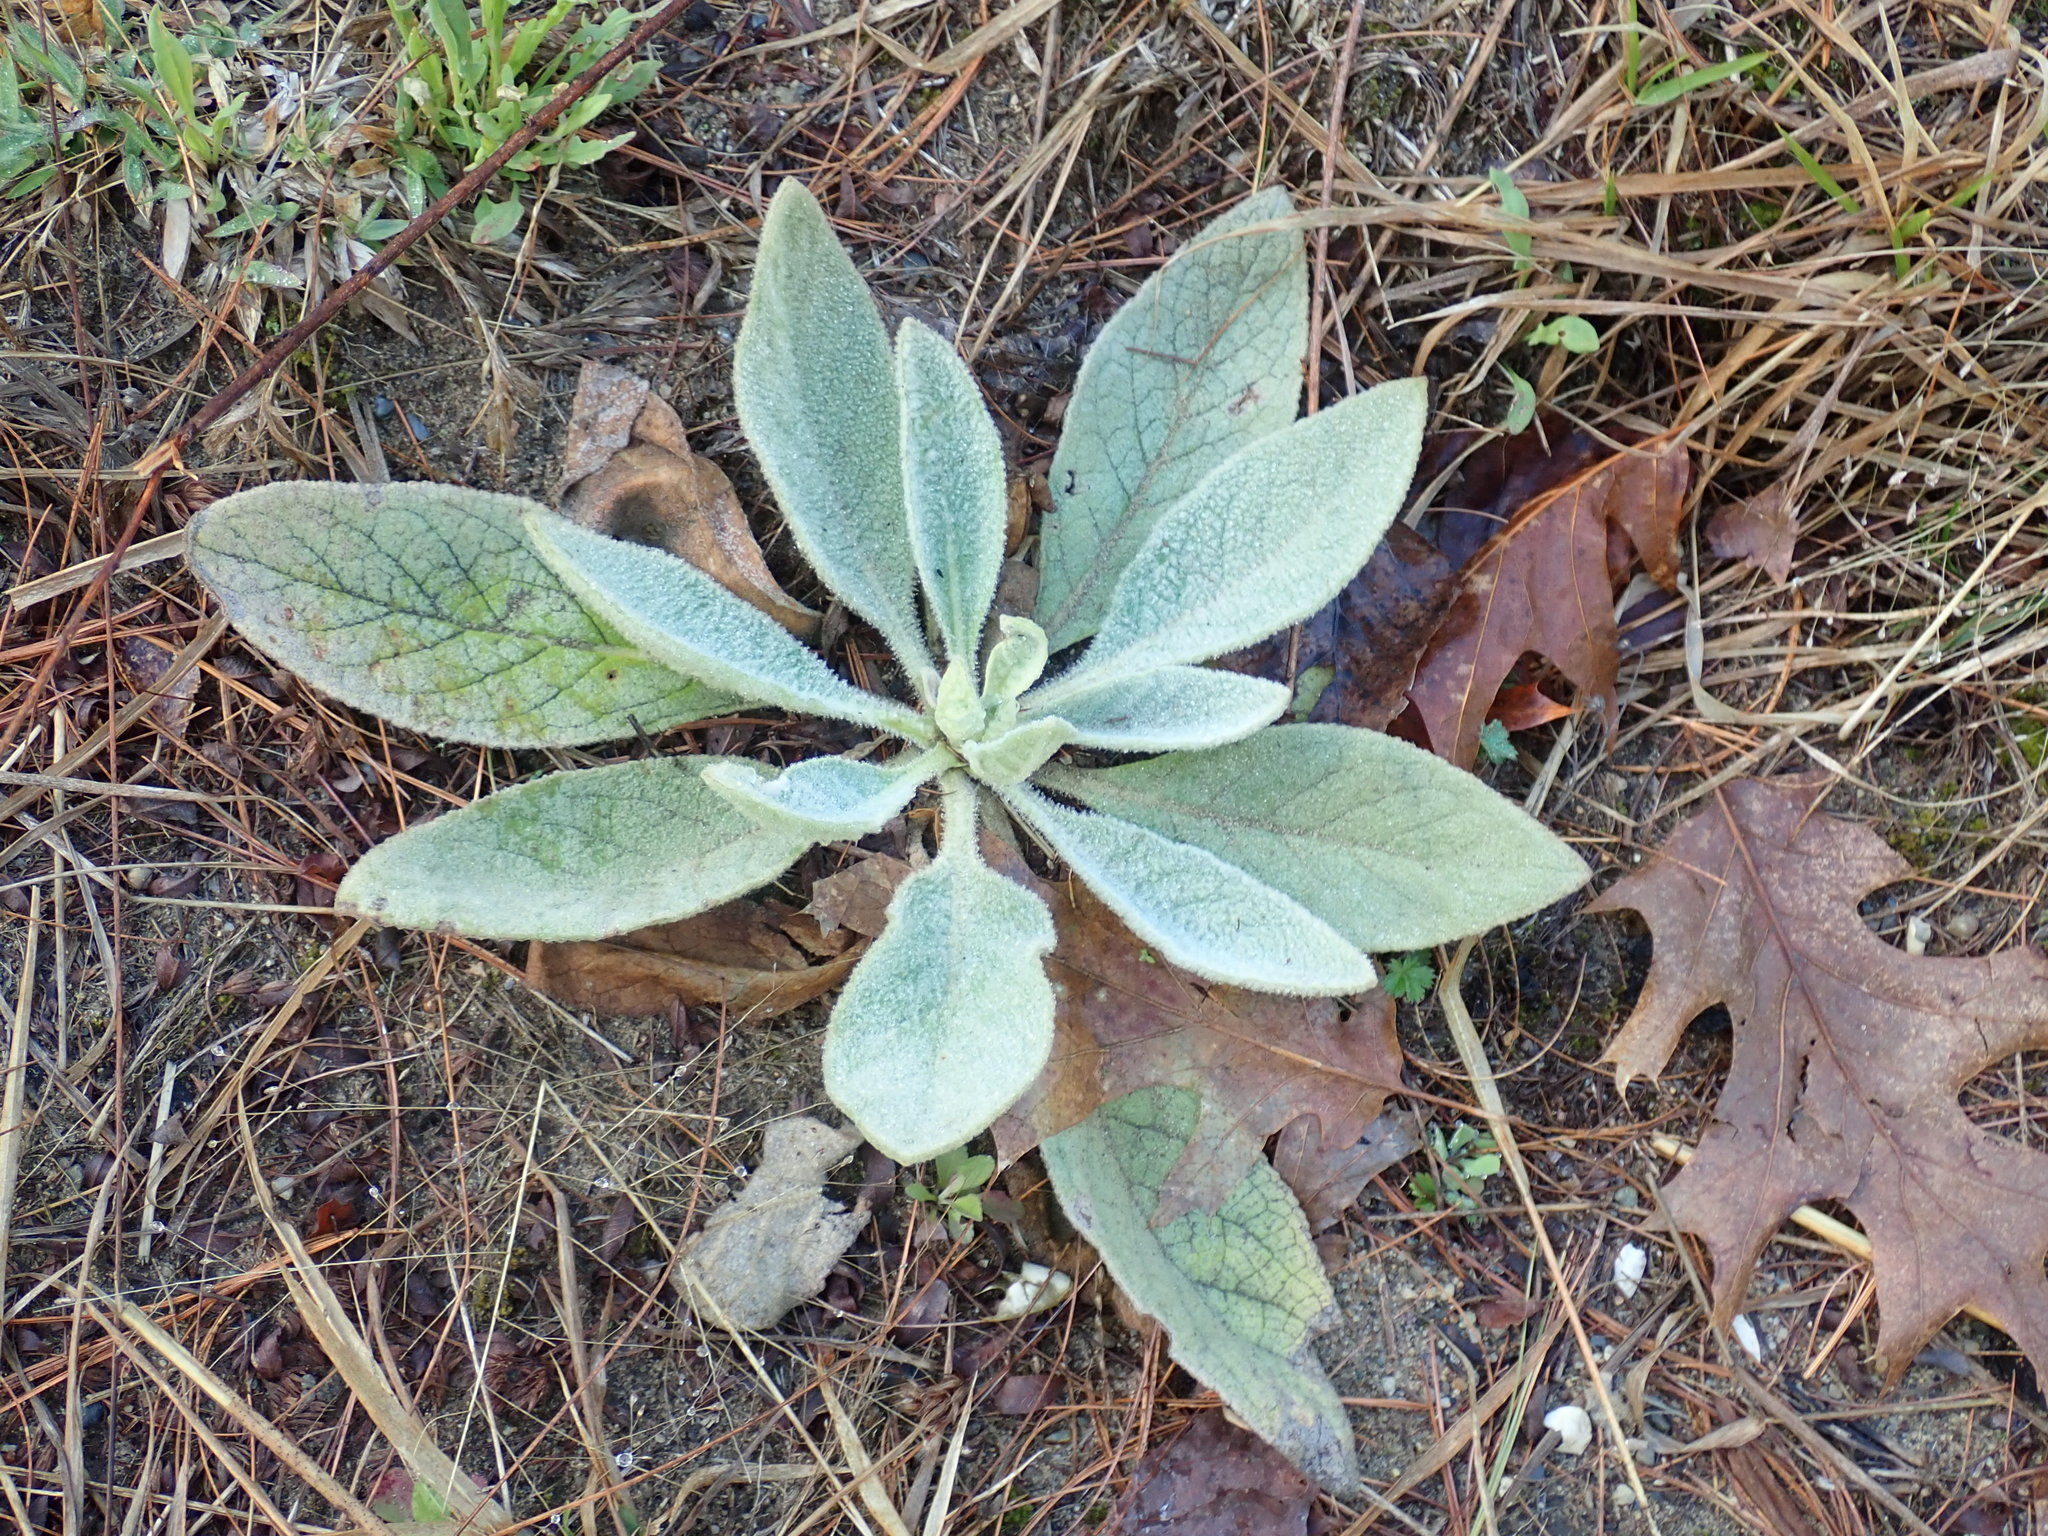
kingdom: Plantae
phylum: Tracheophyta
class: Magnoliopsida
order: Lamiales
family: Scrophulariaceae
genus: Verbascum
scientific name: Verbascum thapsus
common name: Common mullein
